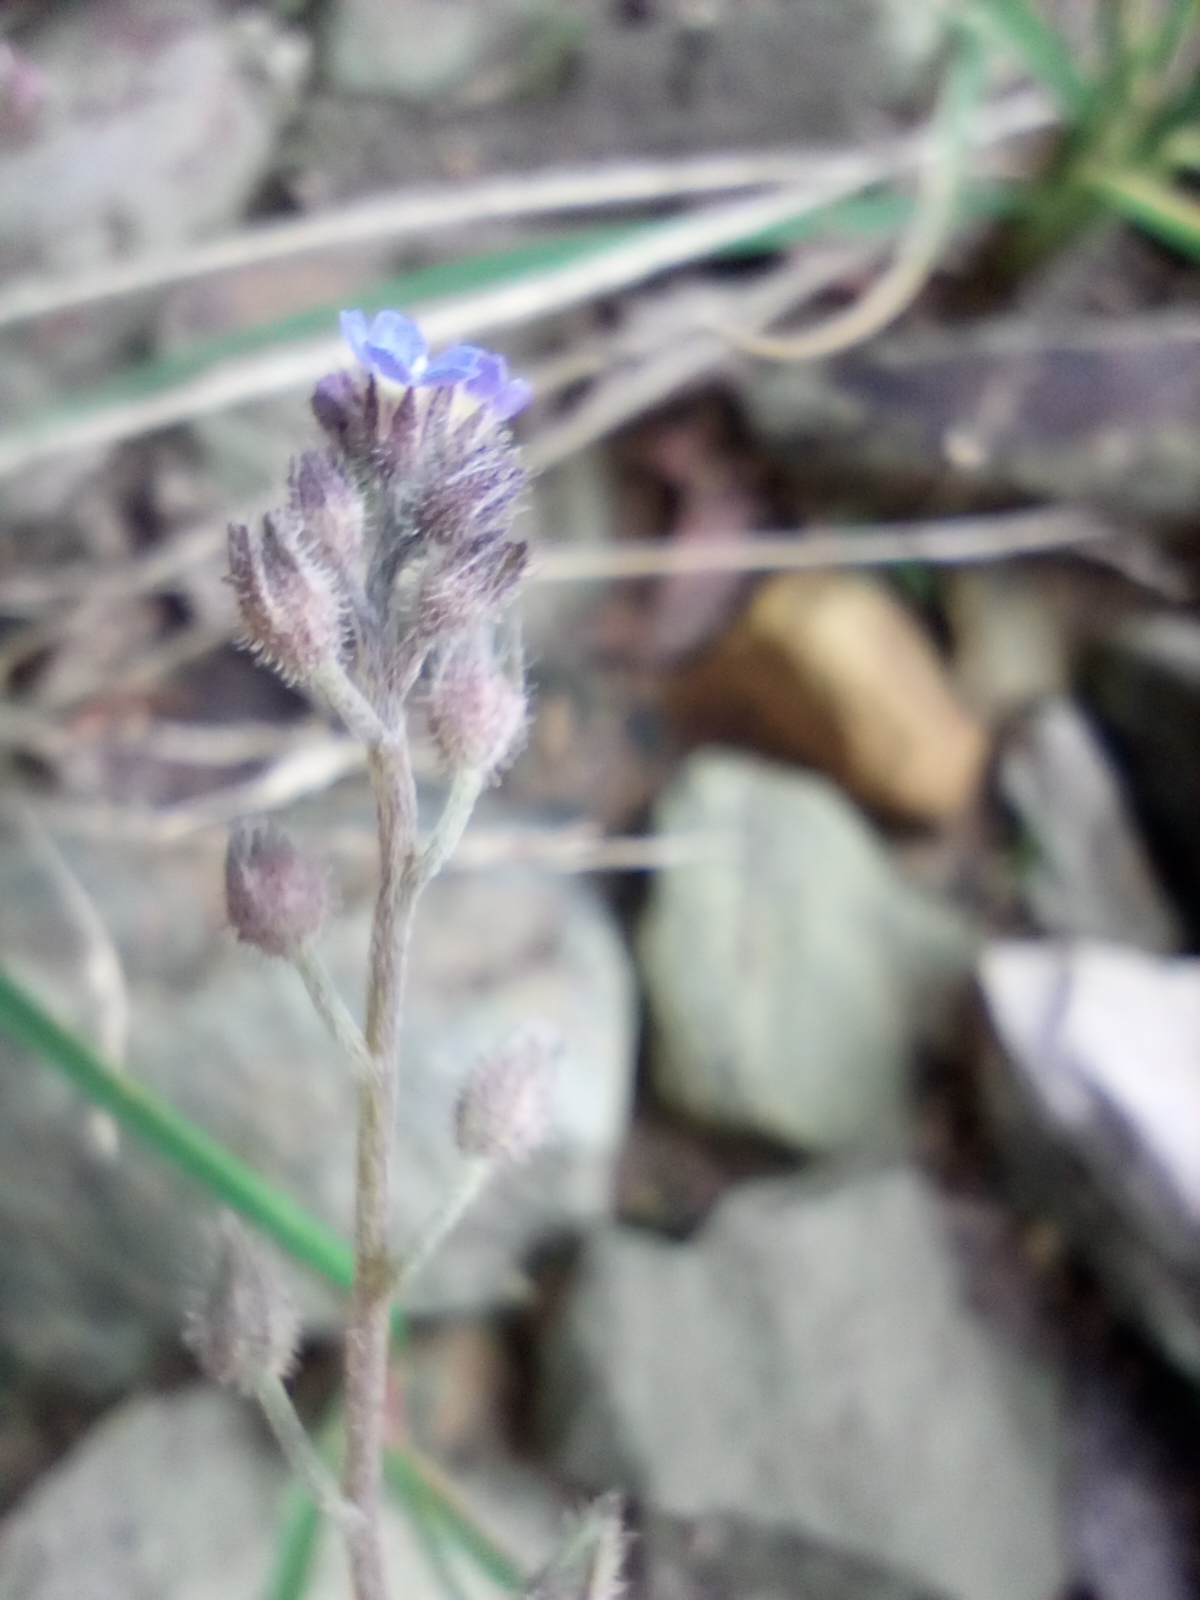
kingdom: Plantae
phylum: Tracheophyta
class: Magnoliopsida
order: Boraginales
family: Boraginaceae
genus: Myosotis
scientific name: Myosotis arvensis
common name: Field forget-me-not
